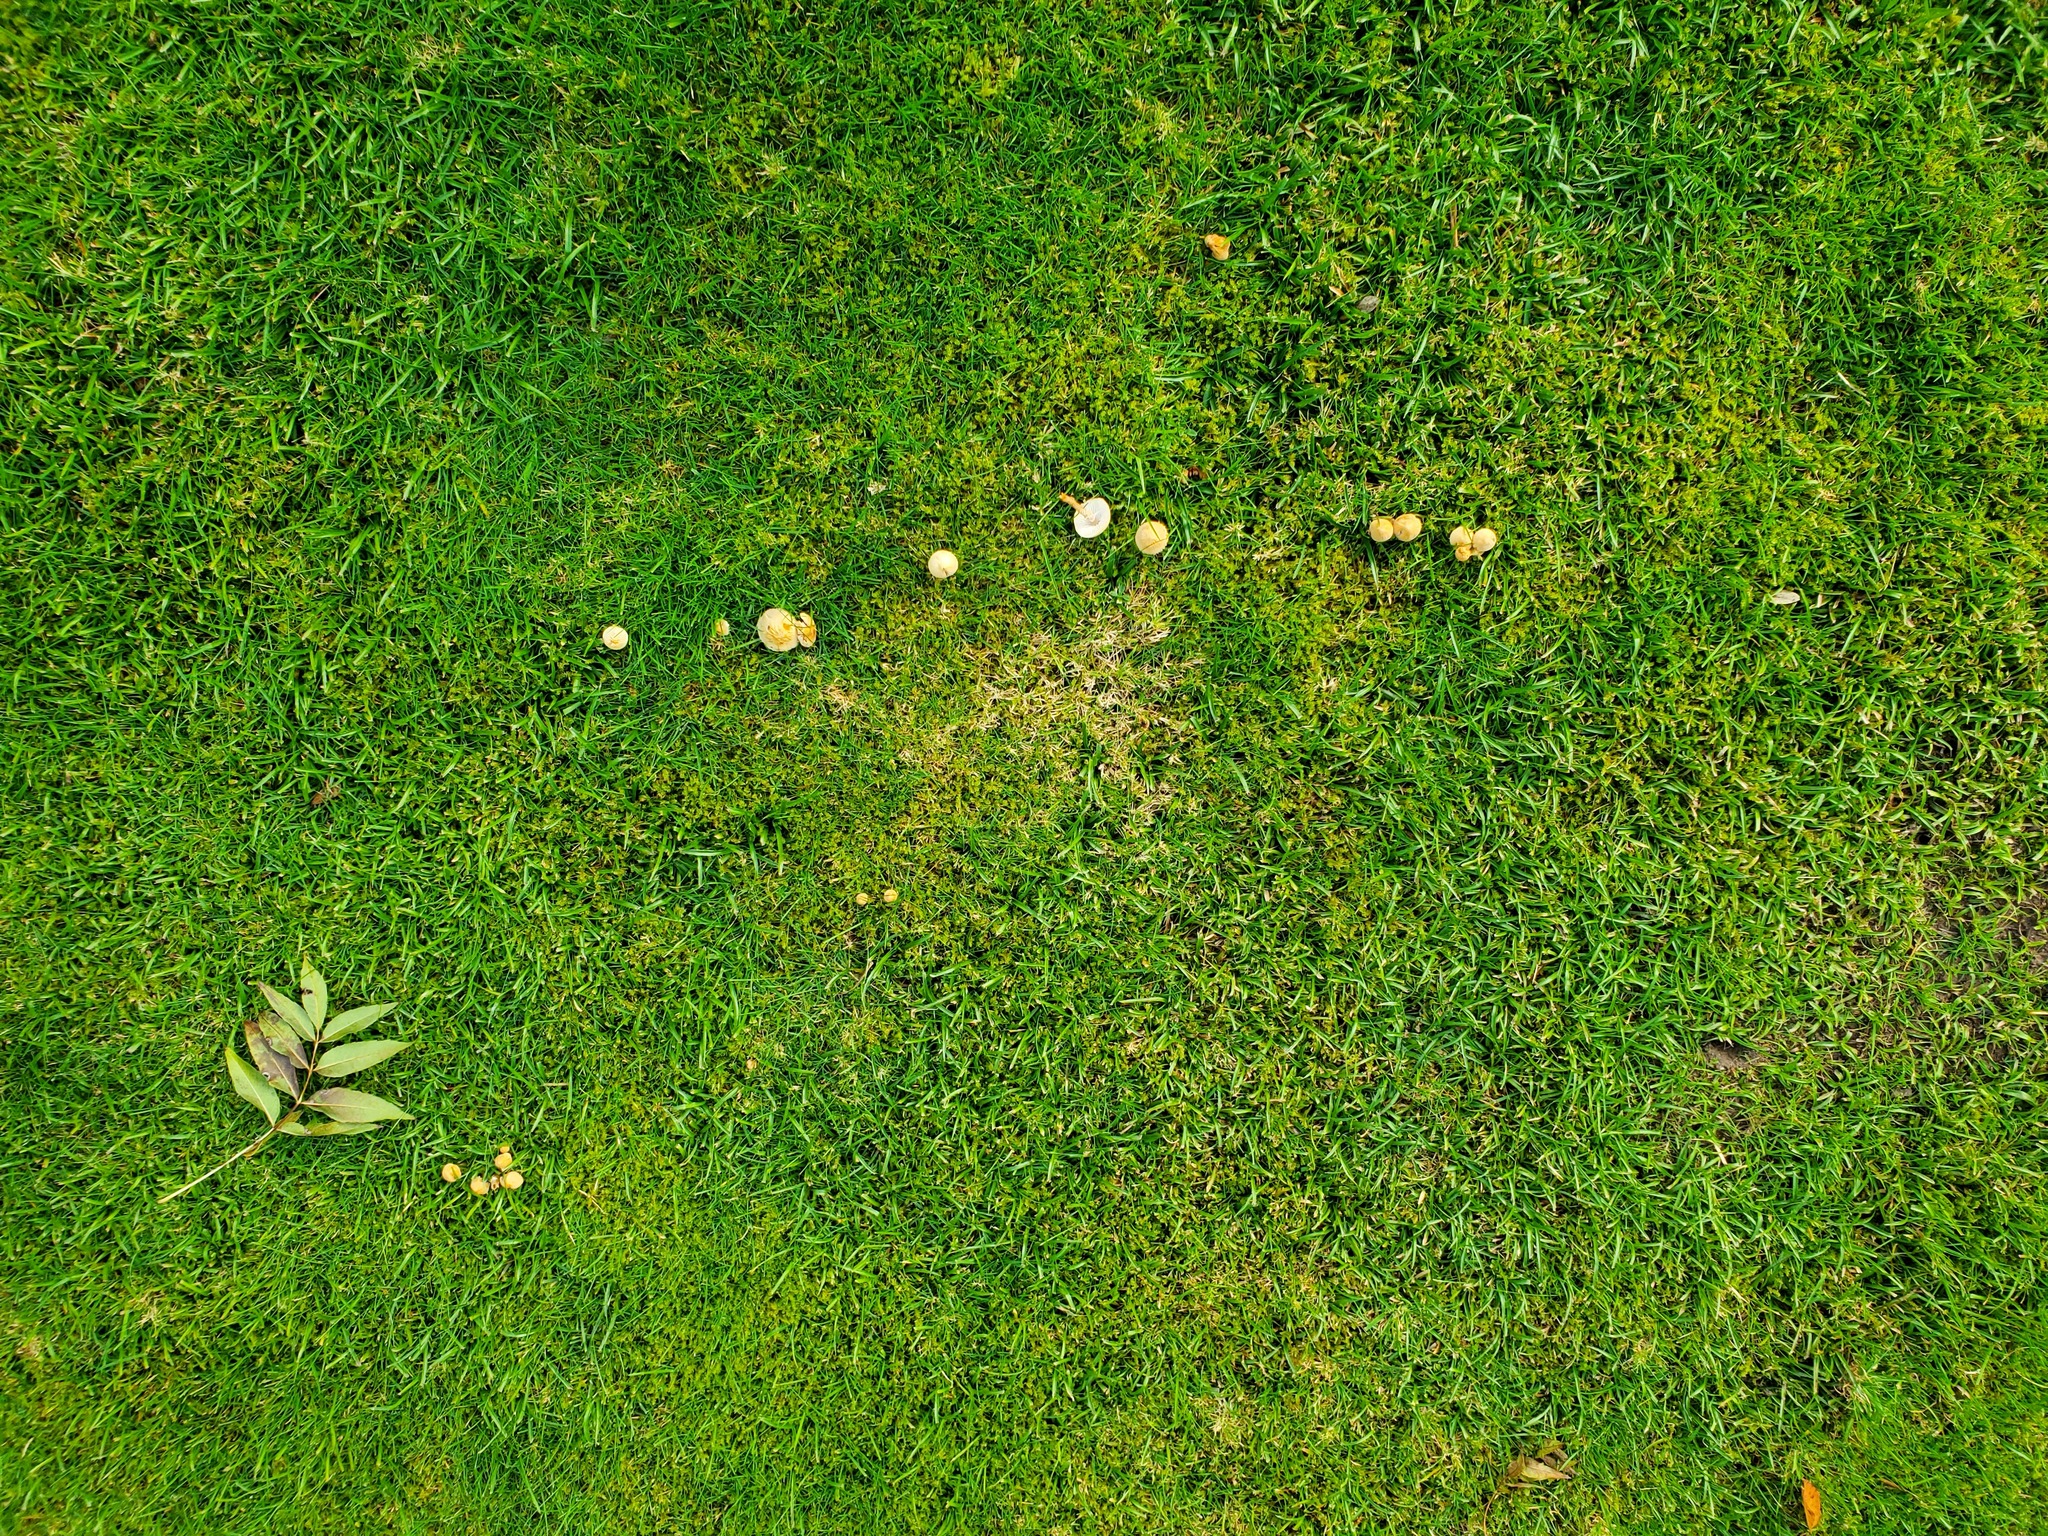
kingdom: Fungi
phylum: Basidiomycota
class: Agaricomycetes
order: Agaricales
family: Tricholomataceae
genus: Cystoderma
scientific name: Cystoderma amianthinum
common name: Earthy powdercap
